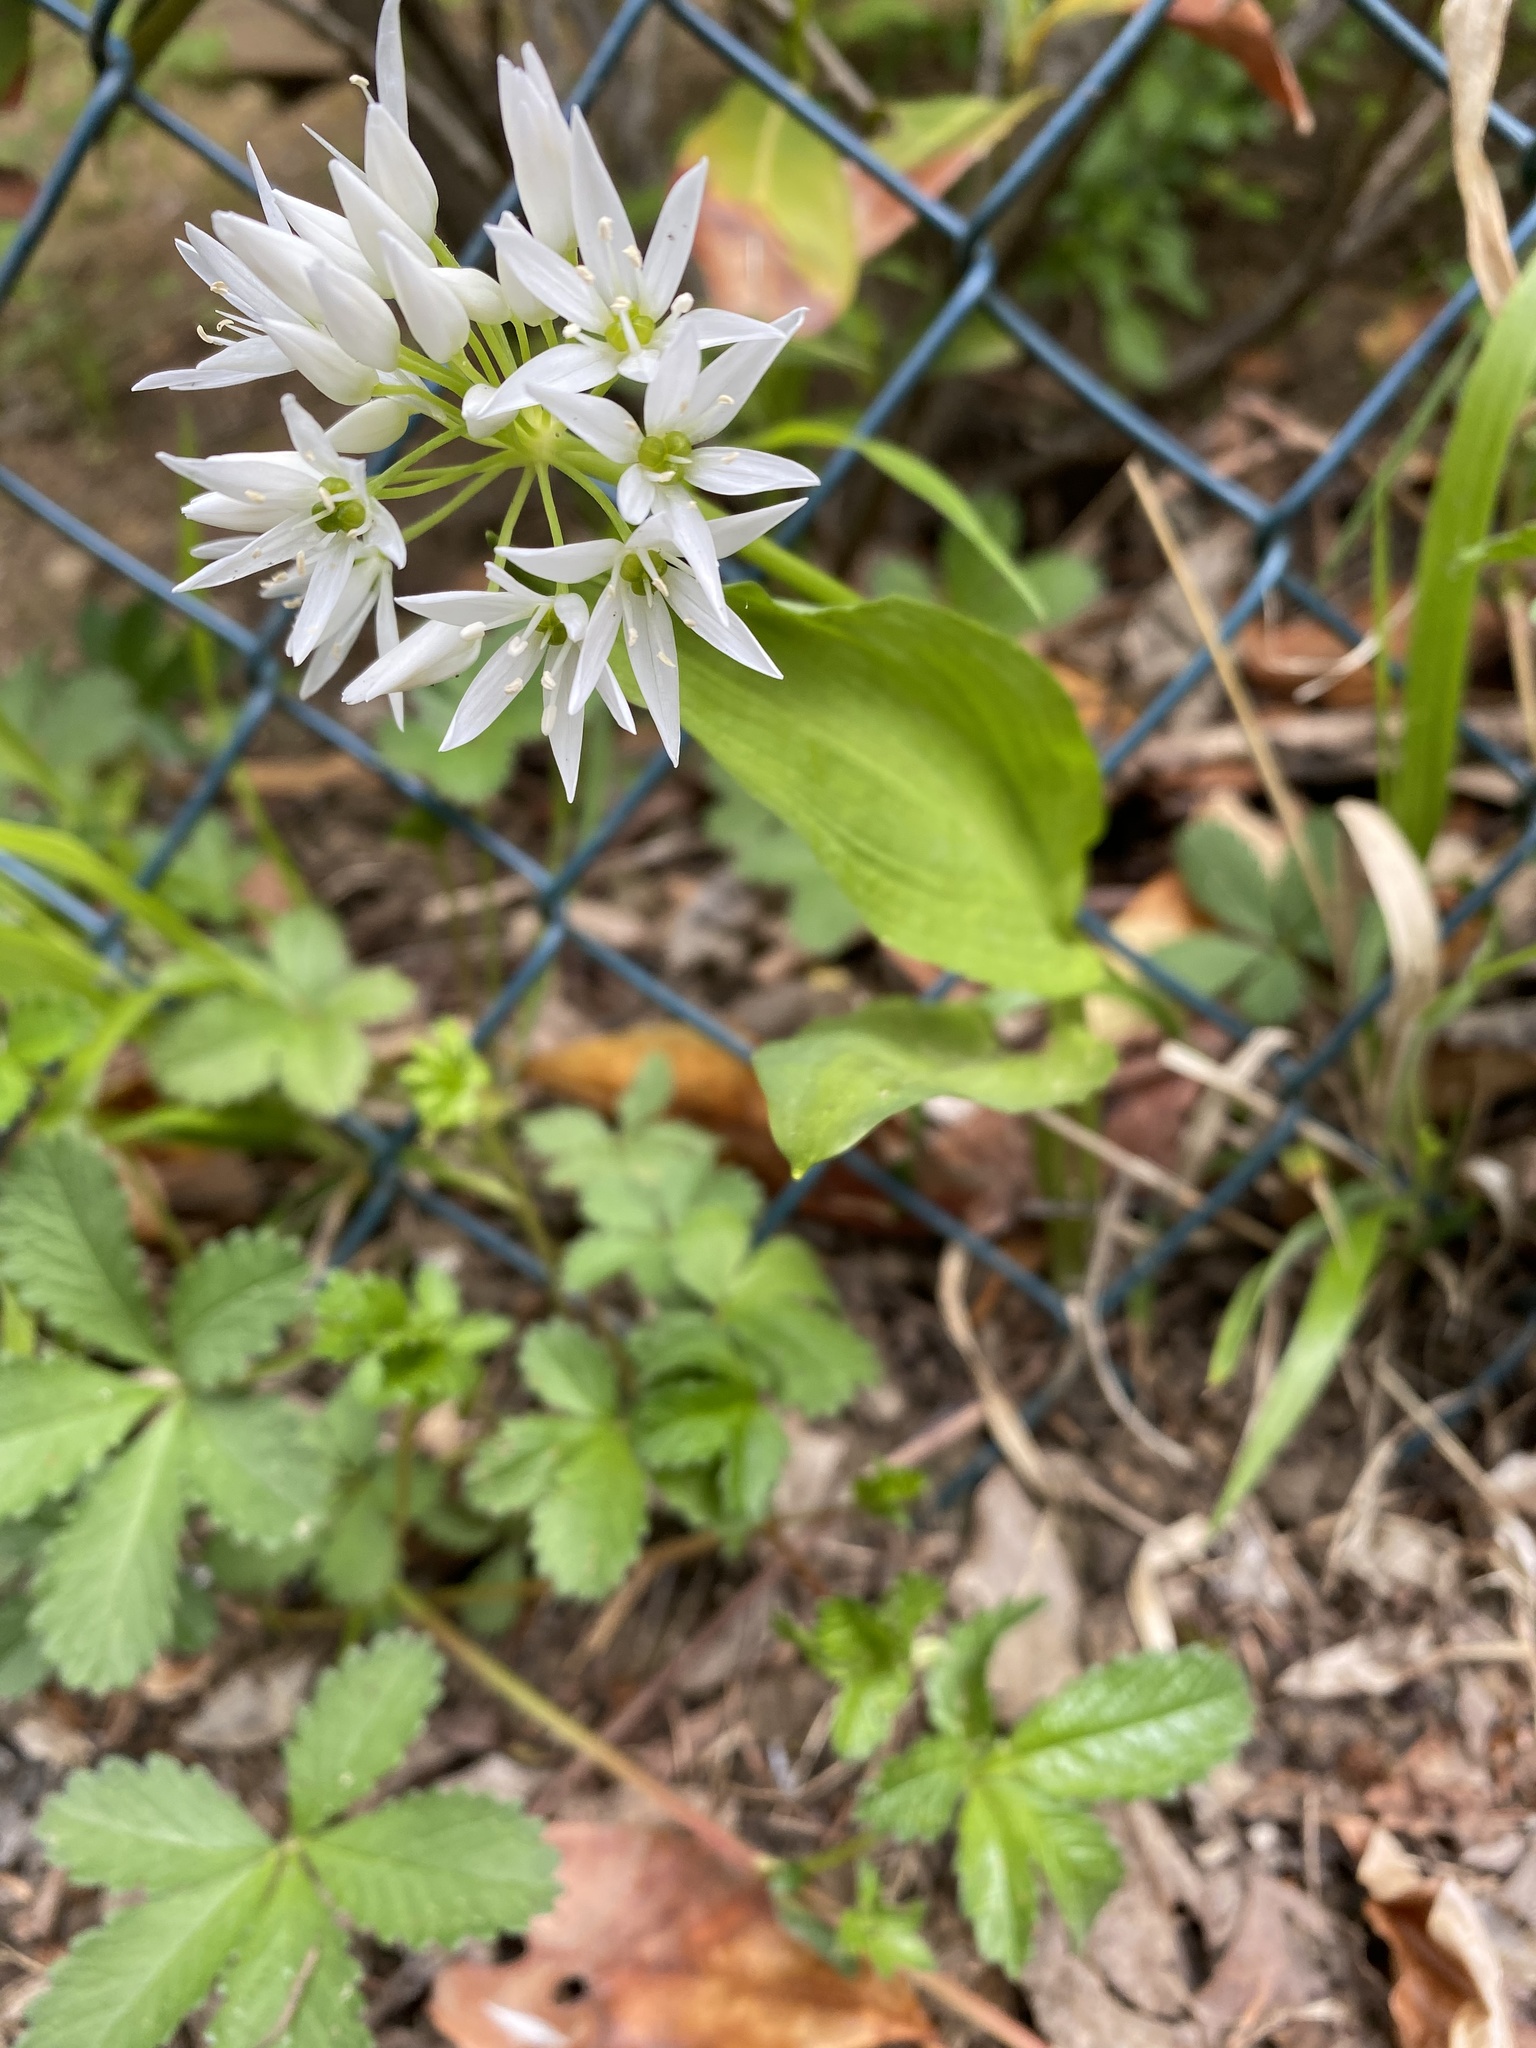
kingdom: Plantae
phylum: Tracheophyta
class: Liliopsida
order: Asparagales
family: Amaryllidaceae
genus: Allium
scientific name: Allium ursinum
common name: Ramsons
